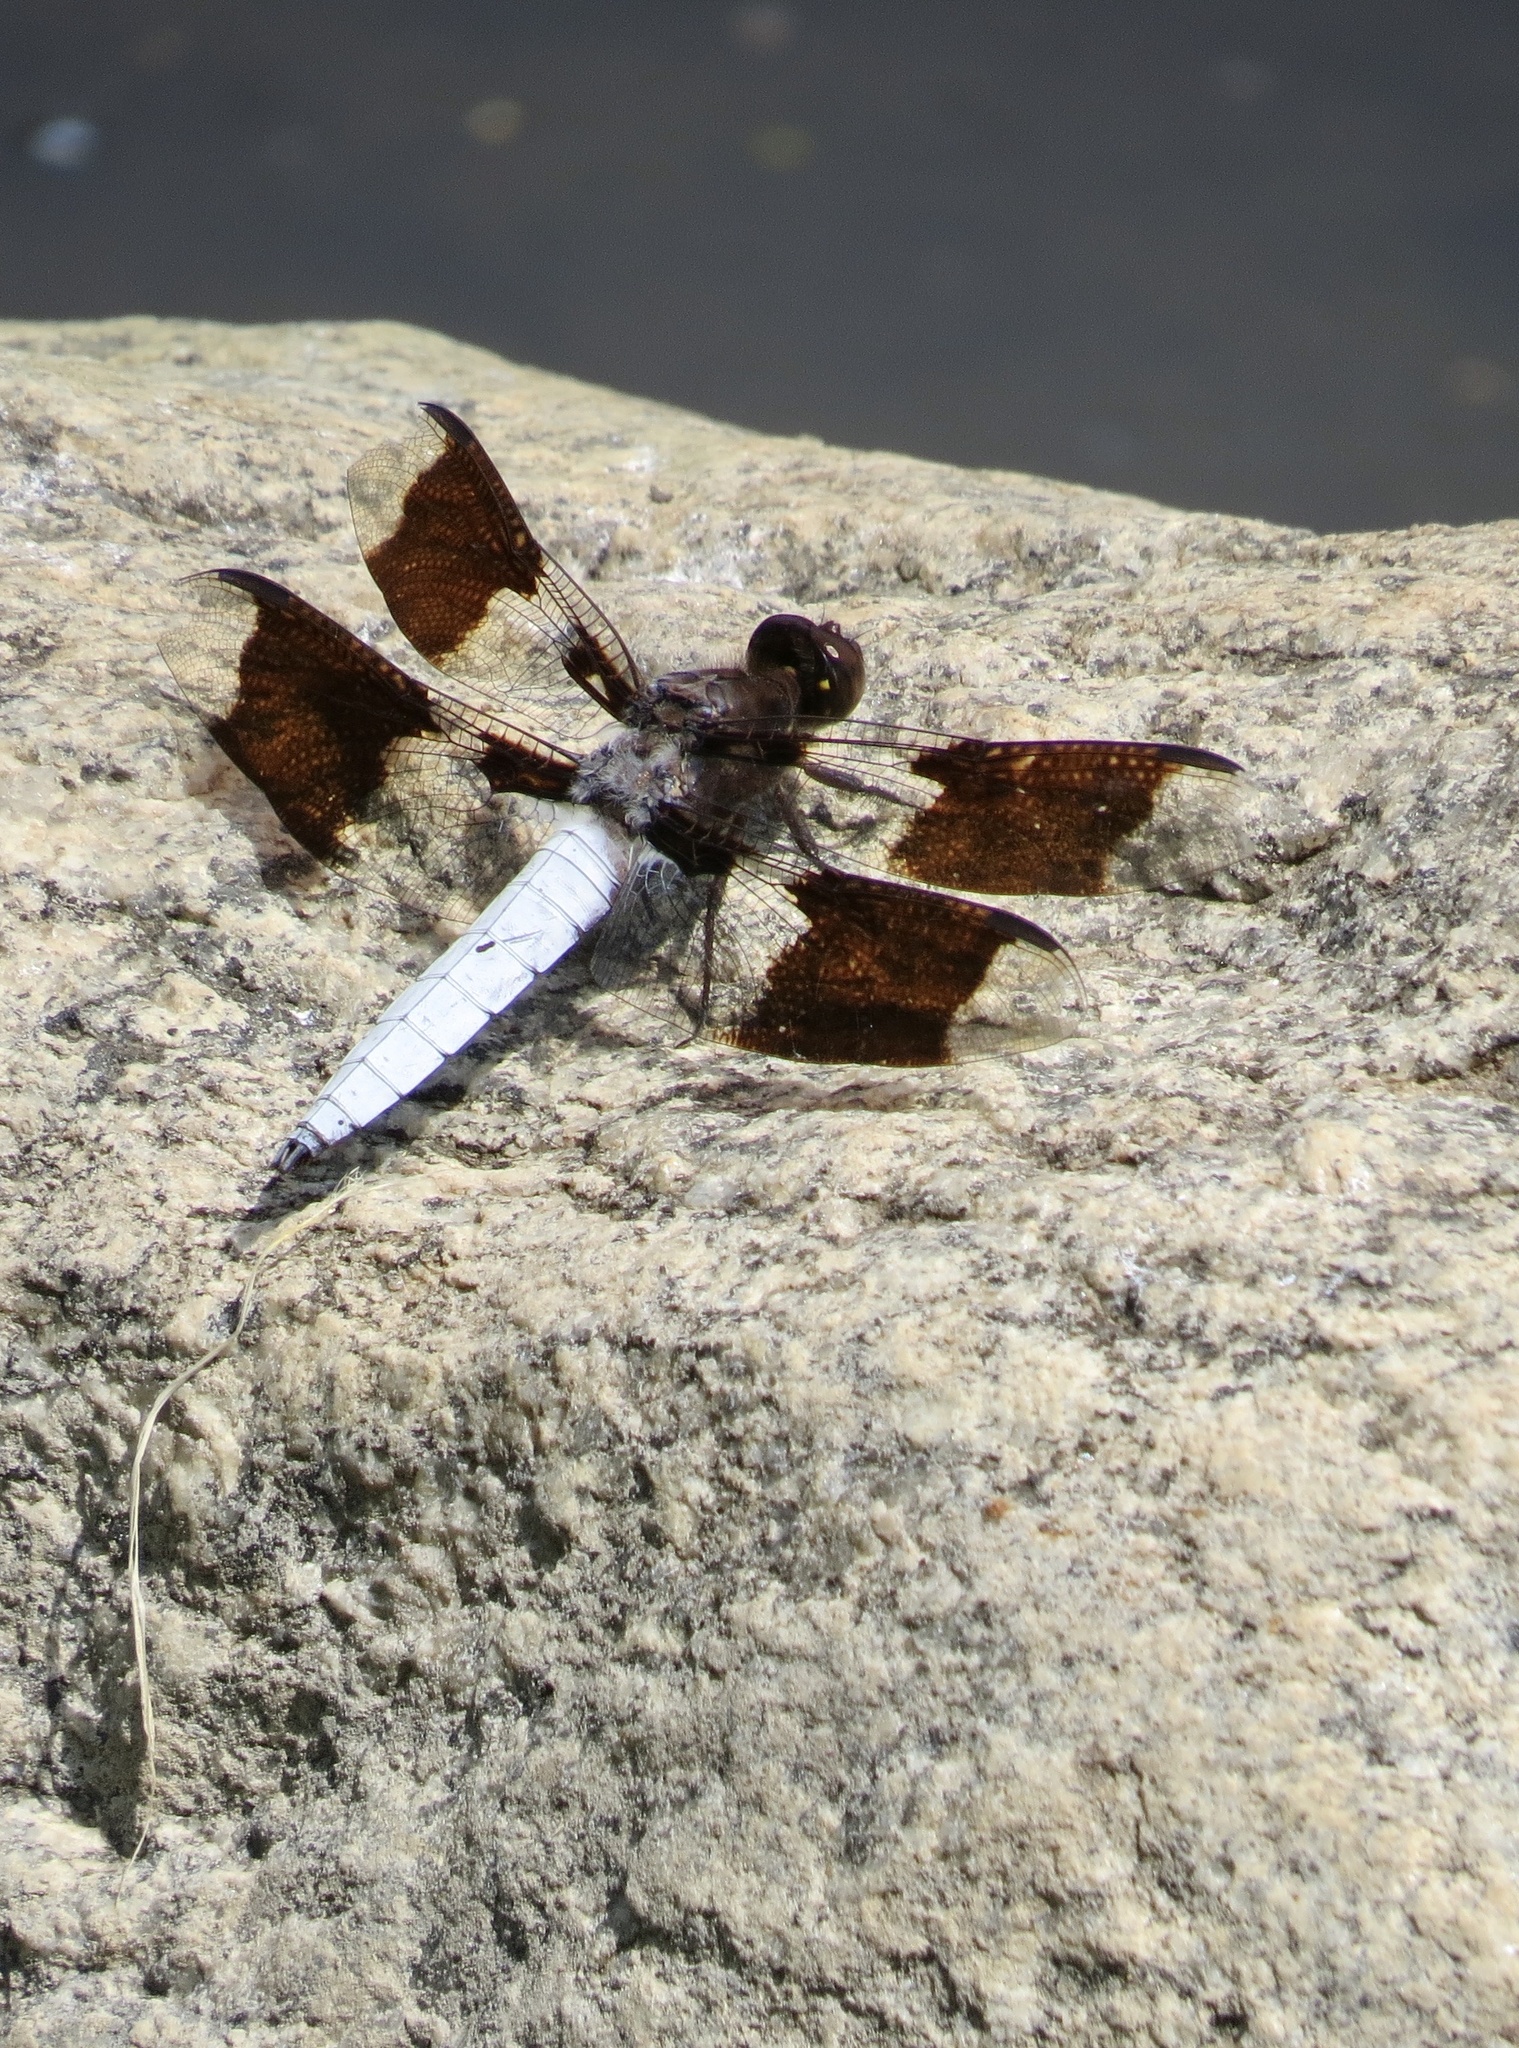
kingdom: Animalia
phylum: Arthropoda
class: Insecta
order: Odonata
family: Libellulidae
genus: Plathemis
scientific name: Plathemis lydia
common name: Common whitetail
